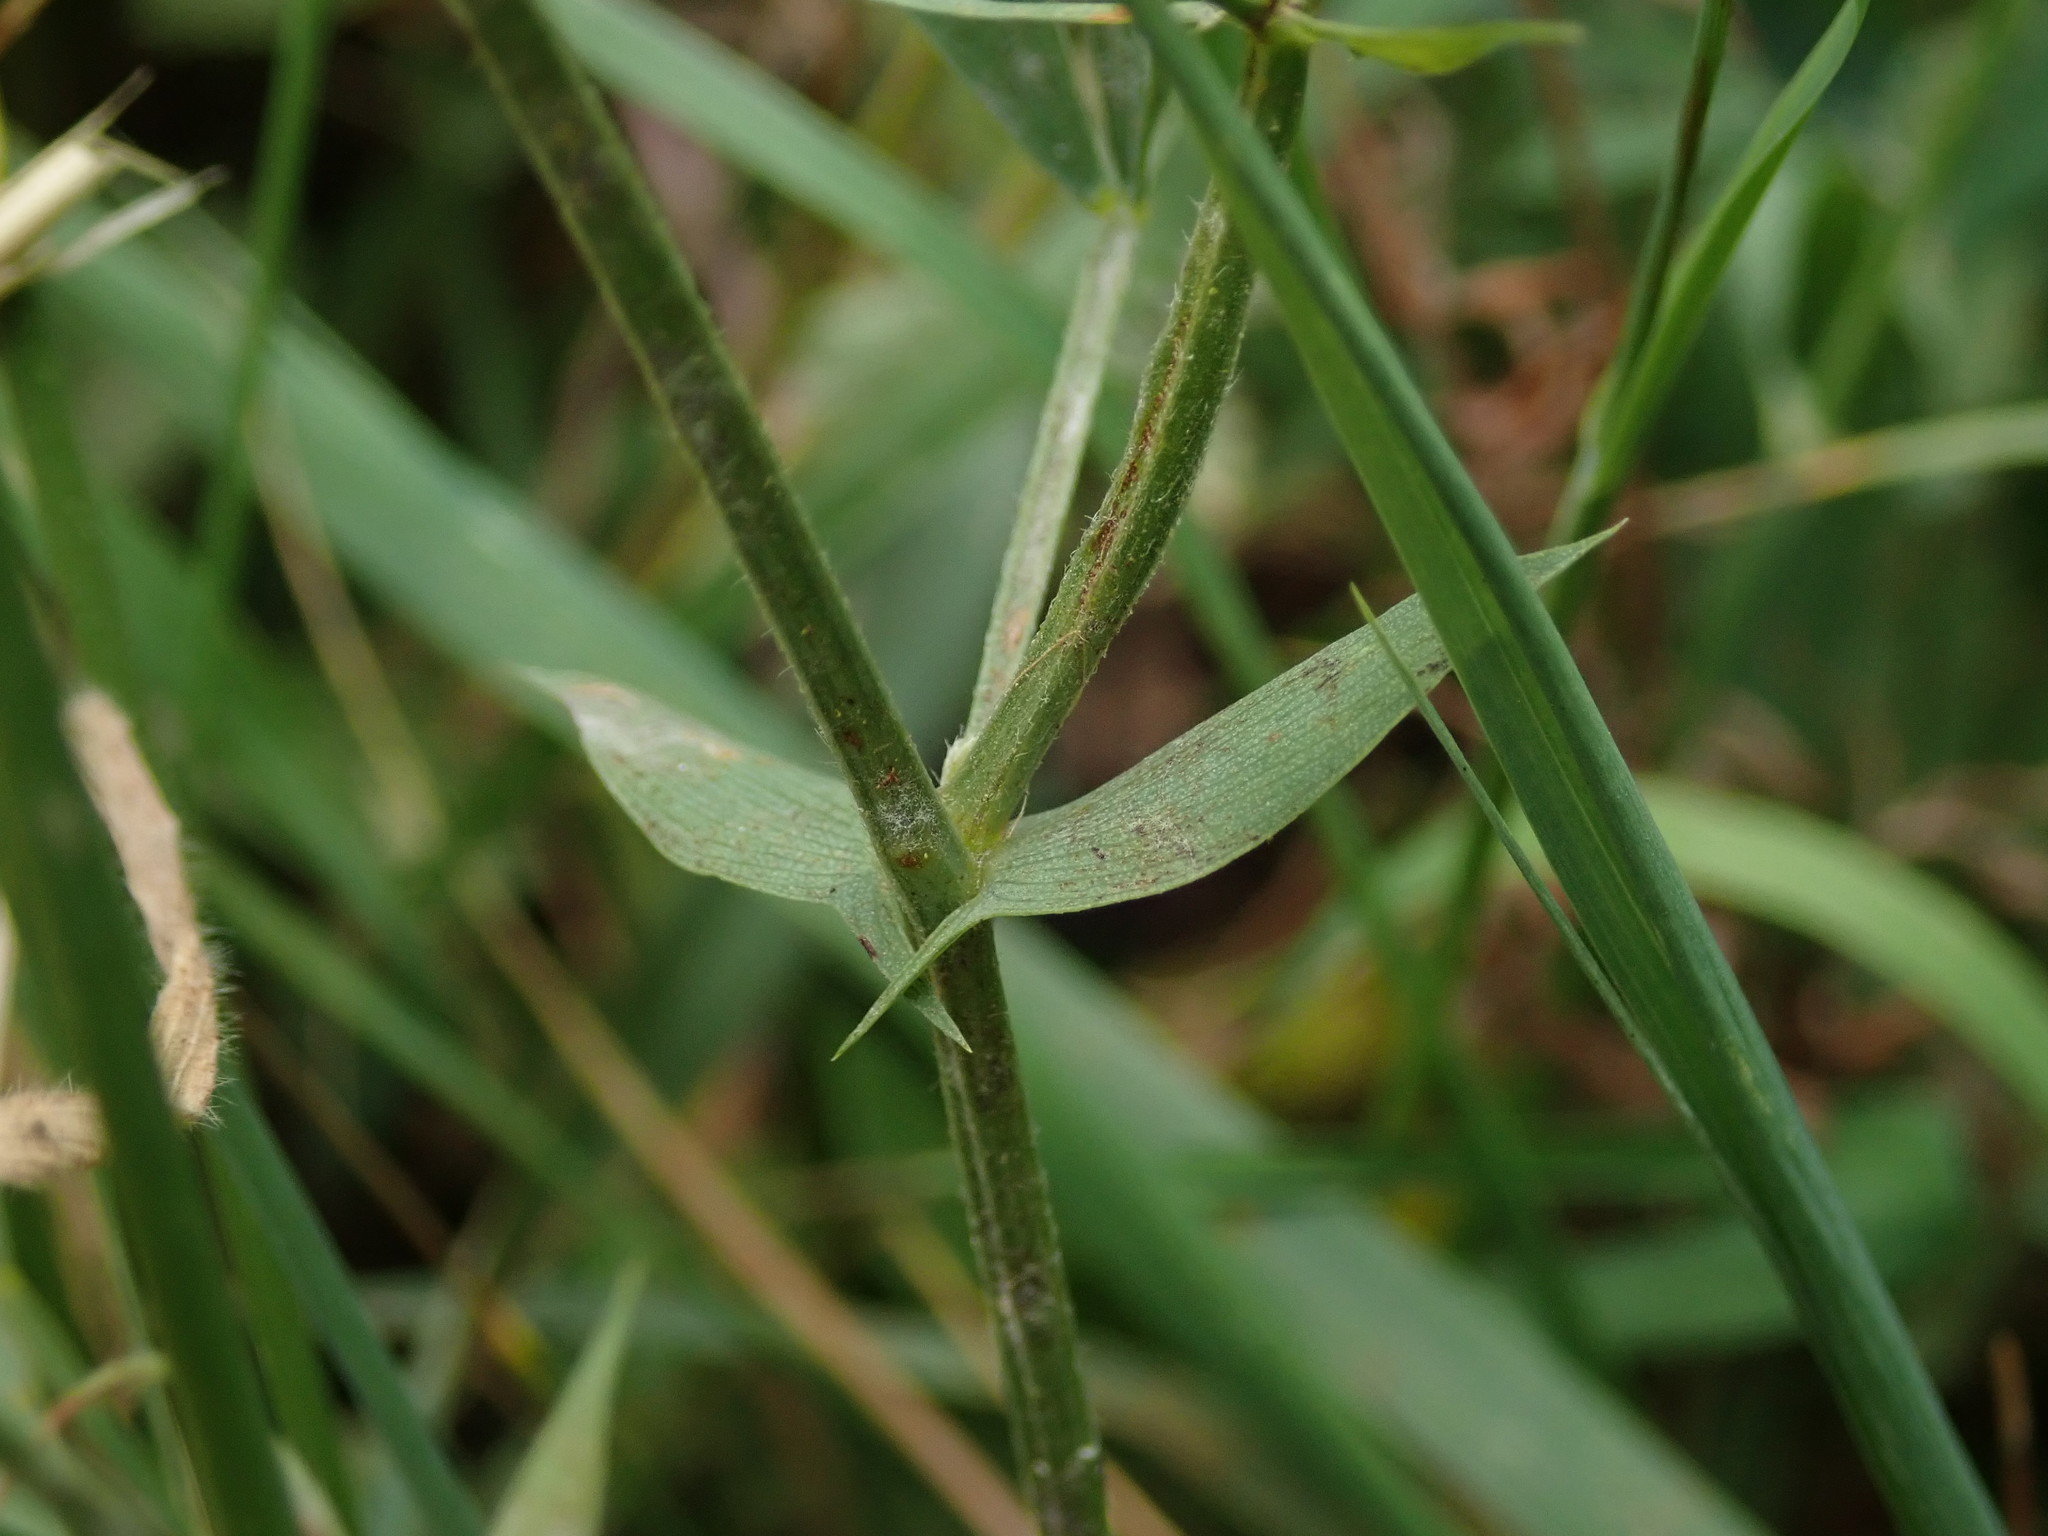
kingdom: Plantae
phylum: Tracheophyta
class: Magnoliopsida
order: Fabales
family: Fabaceae
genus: Lathyrus
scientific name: Lathyrus pratensis
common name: Meadow vetchling
